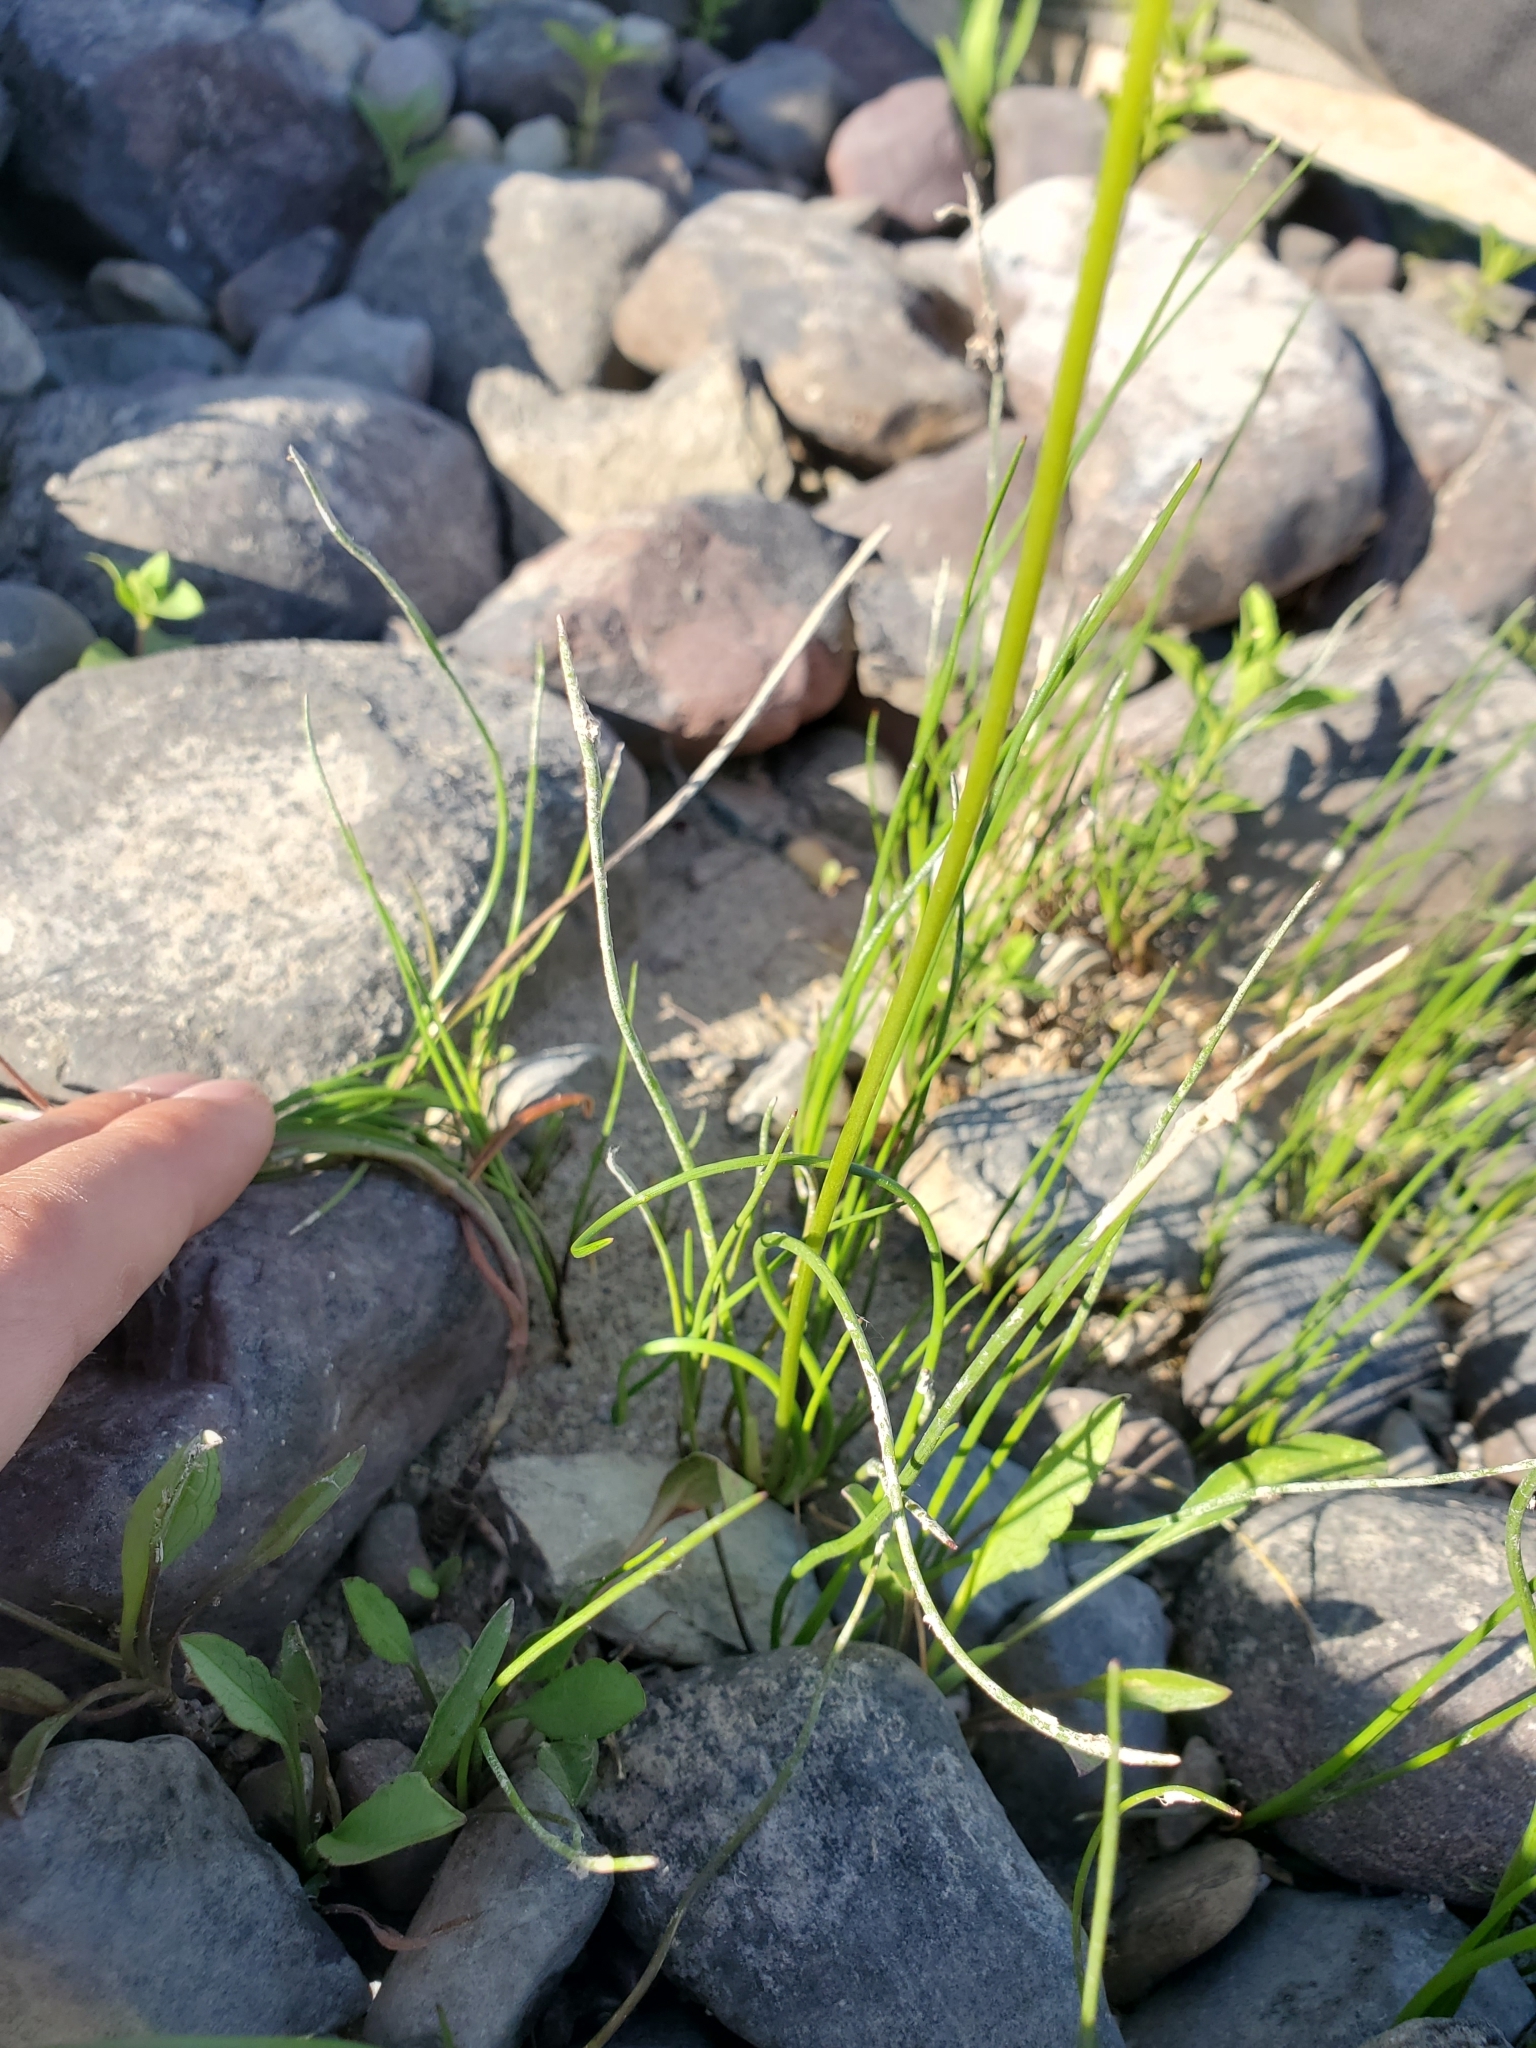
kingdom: Plantae
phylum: Tracheophyta
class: Liliopsida
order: Alismatales
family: Juncaginaceae
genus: Triglochin
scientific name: Triglochin maritima
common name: Sea arrowgrass
